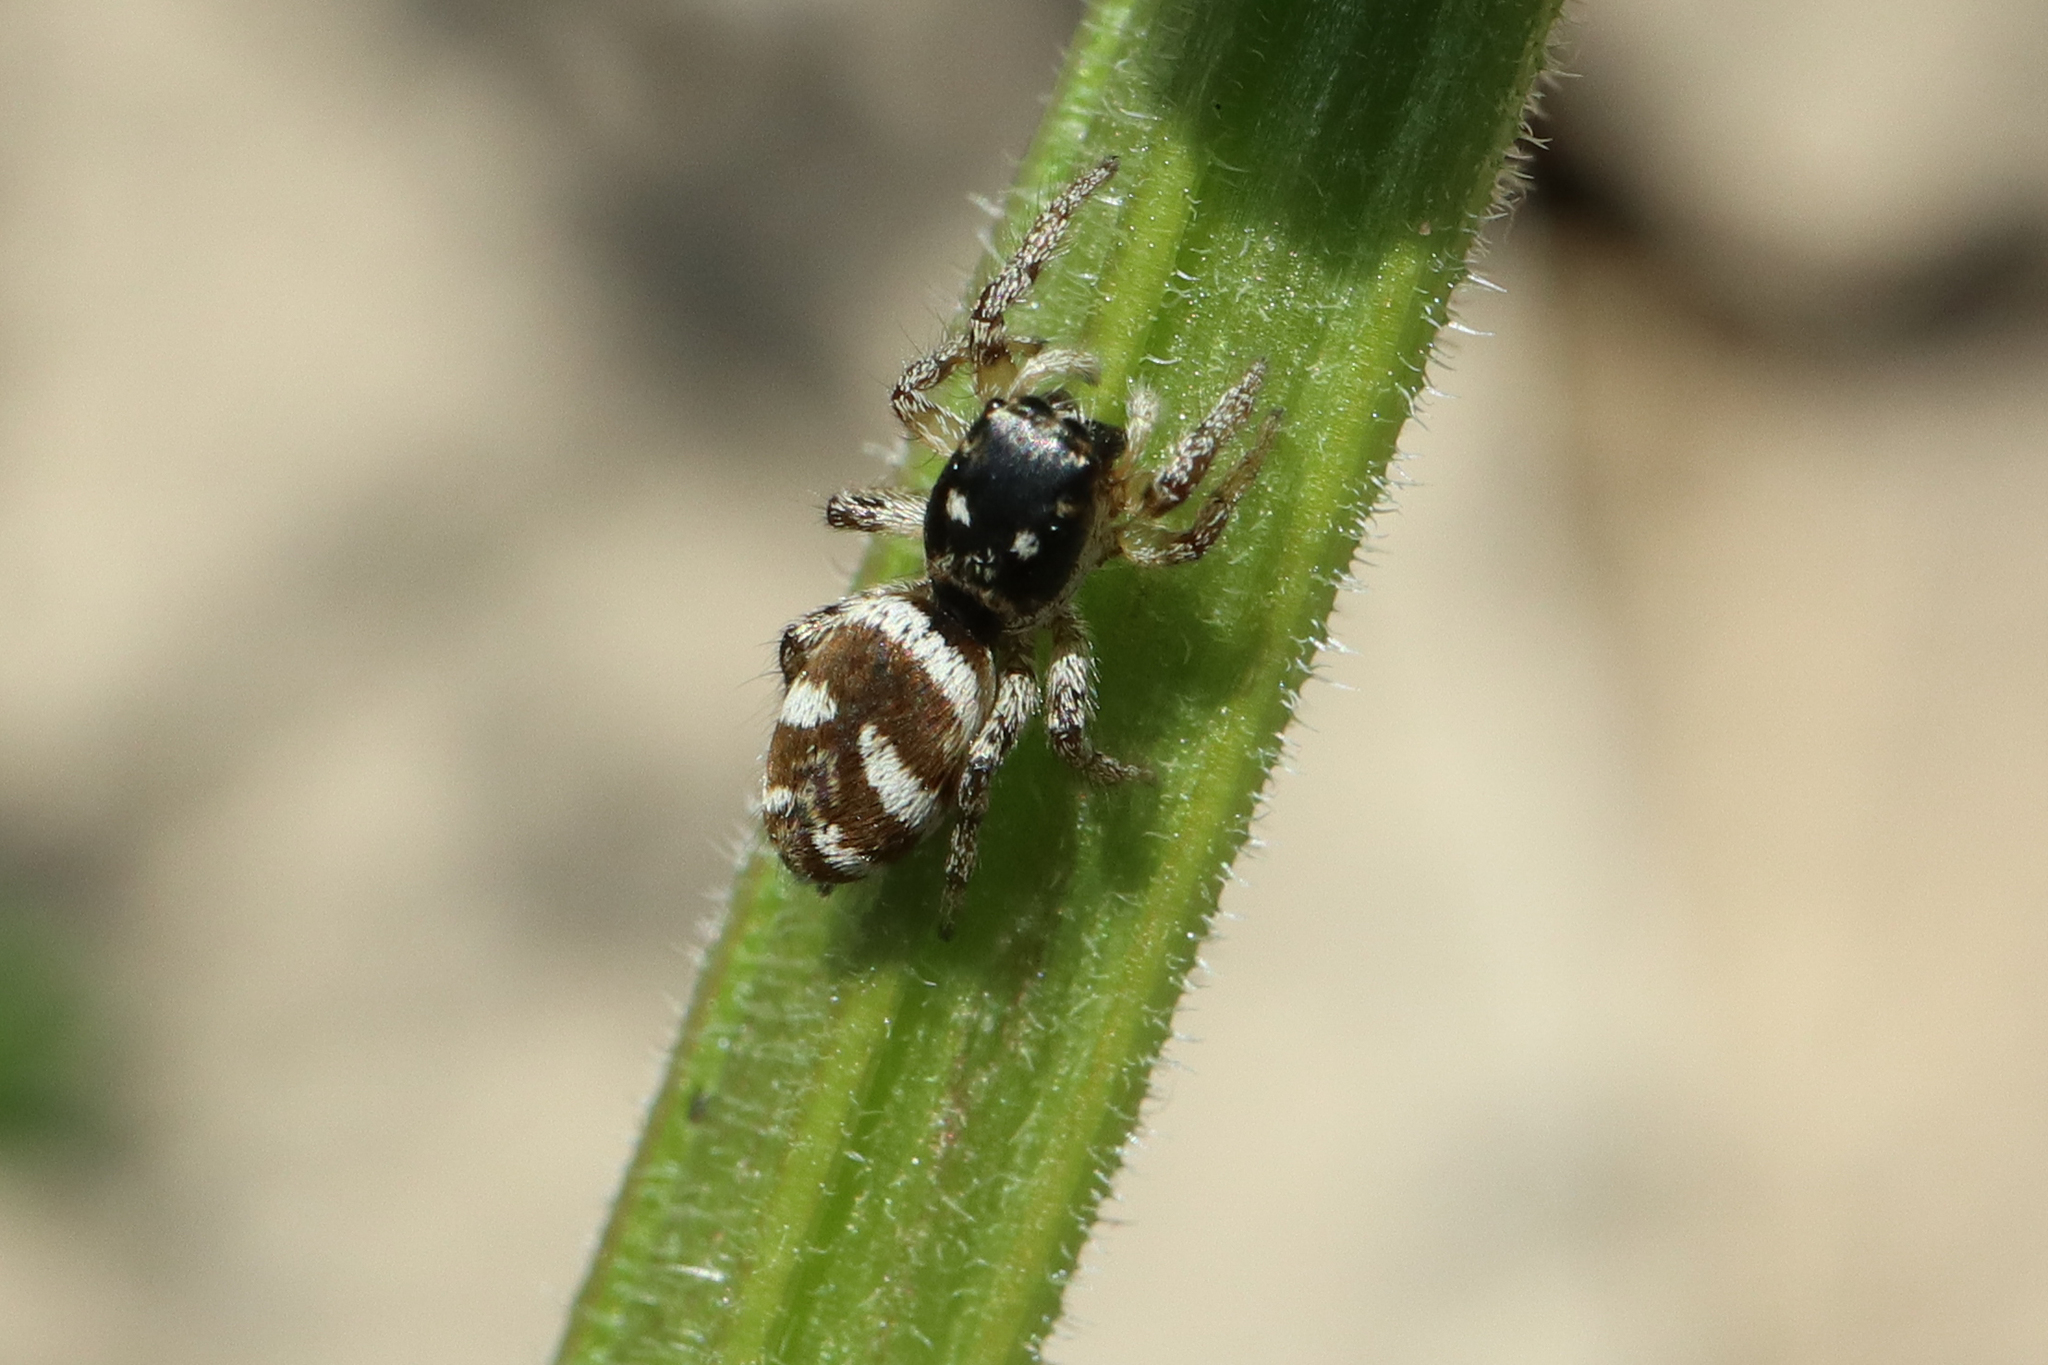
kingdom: Animalia
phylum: Arthropoda
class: Arachnida
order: Araneae
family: Salticidae
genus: Salticus
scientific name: Salticus scenicus
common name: Zebra jumper
